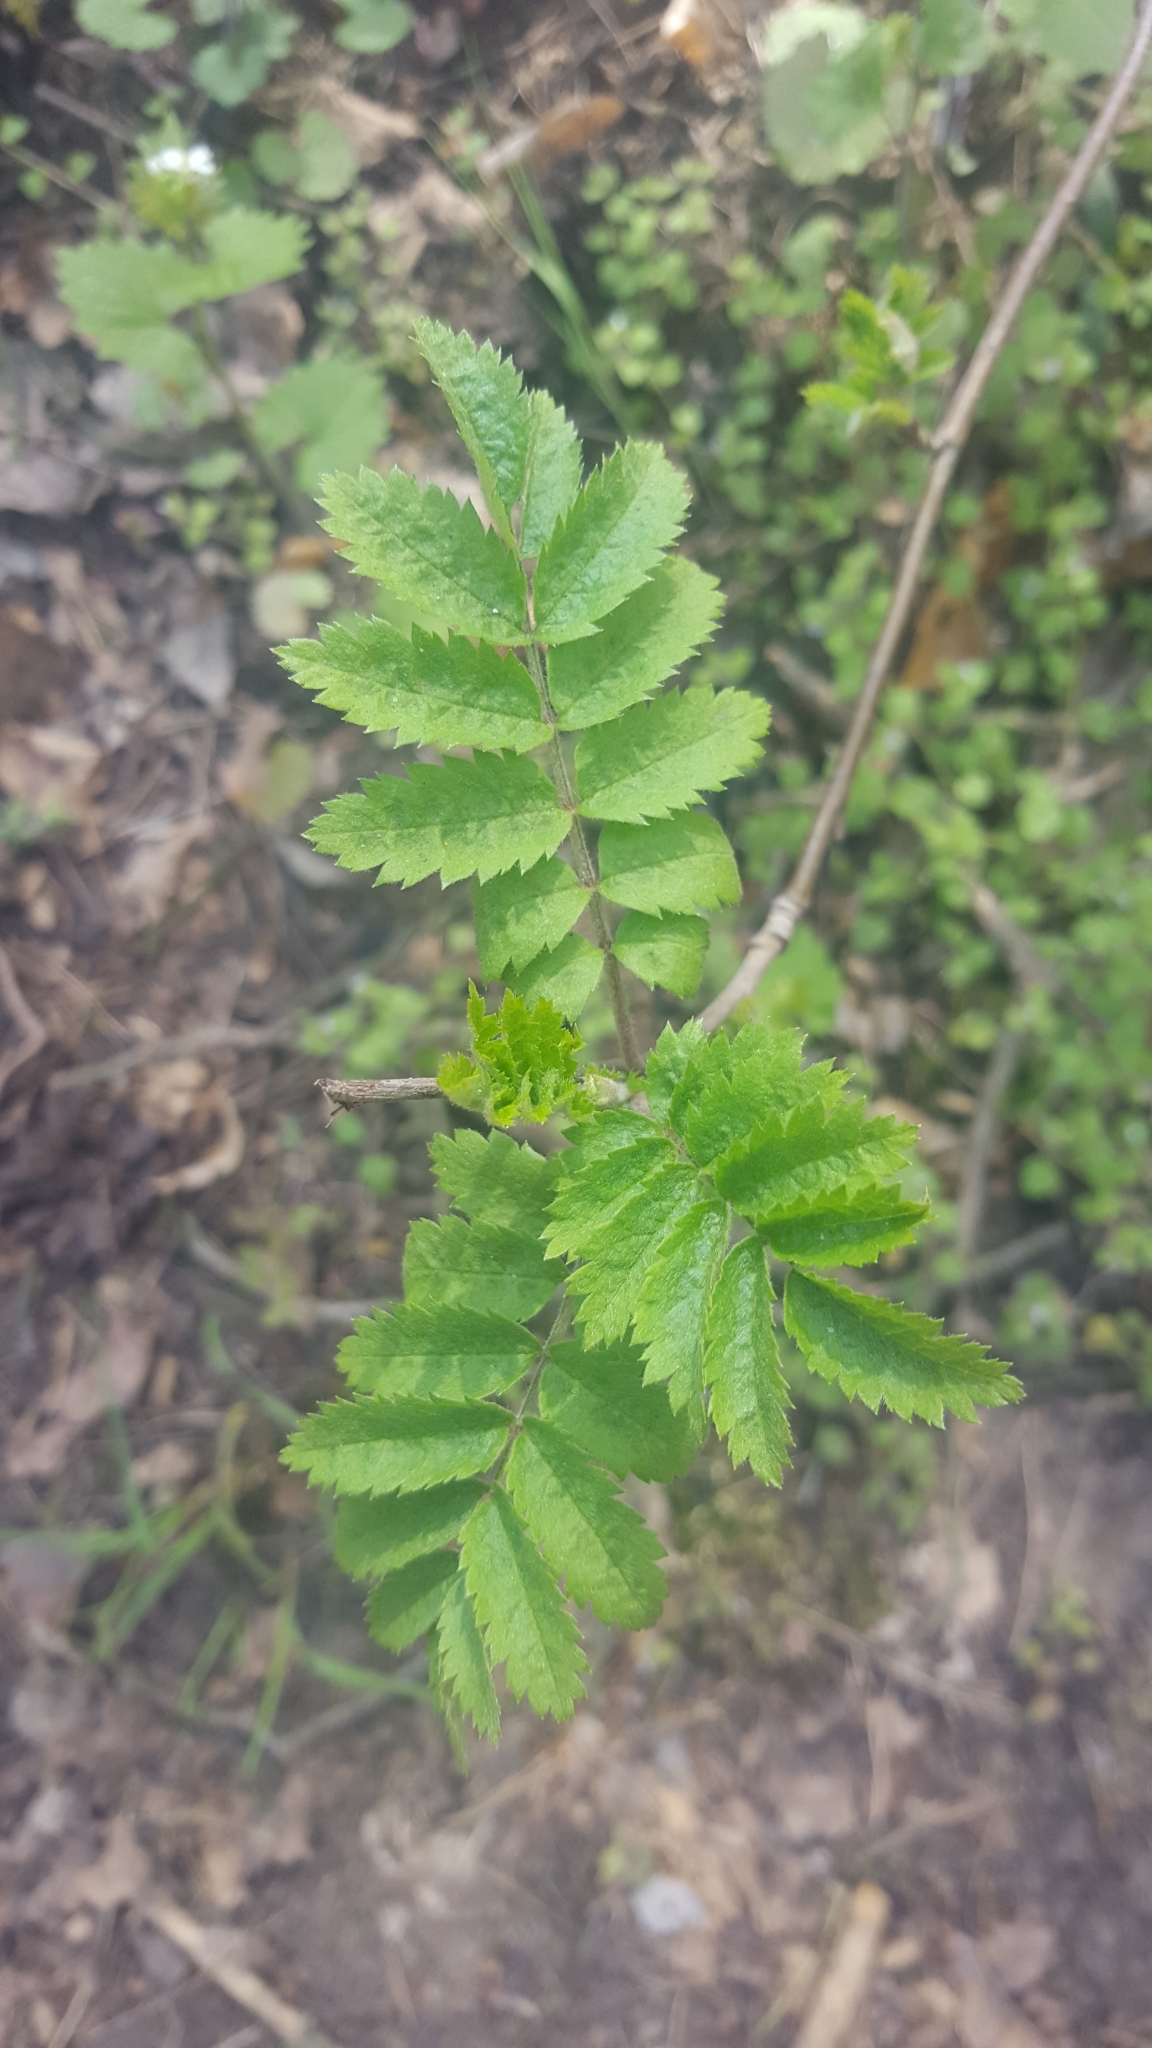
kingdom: Plantae
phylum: Tracheophyta
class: Magnoliopsida
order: Rosales
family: Rosaceae
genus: Sorbus
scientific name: Sorbus aucuparia
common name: Rowan
